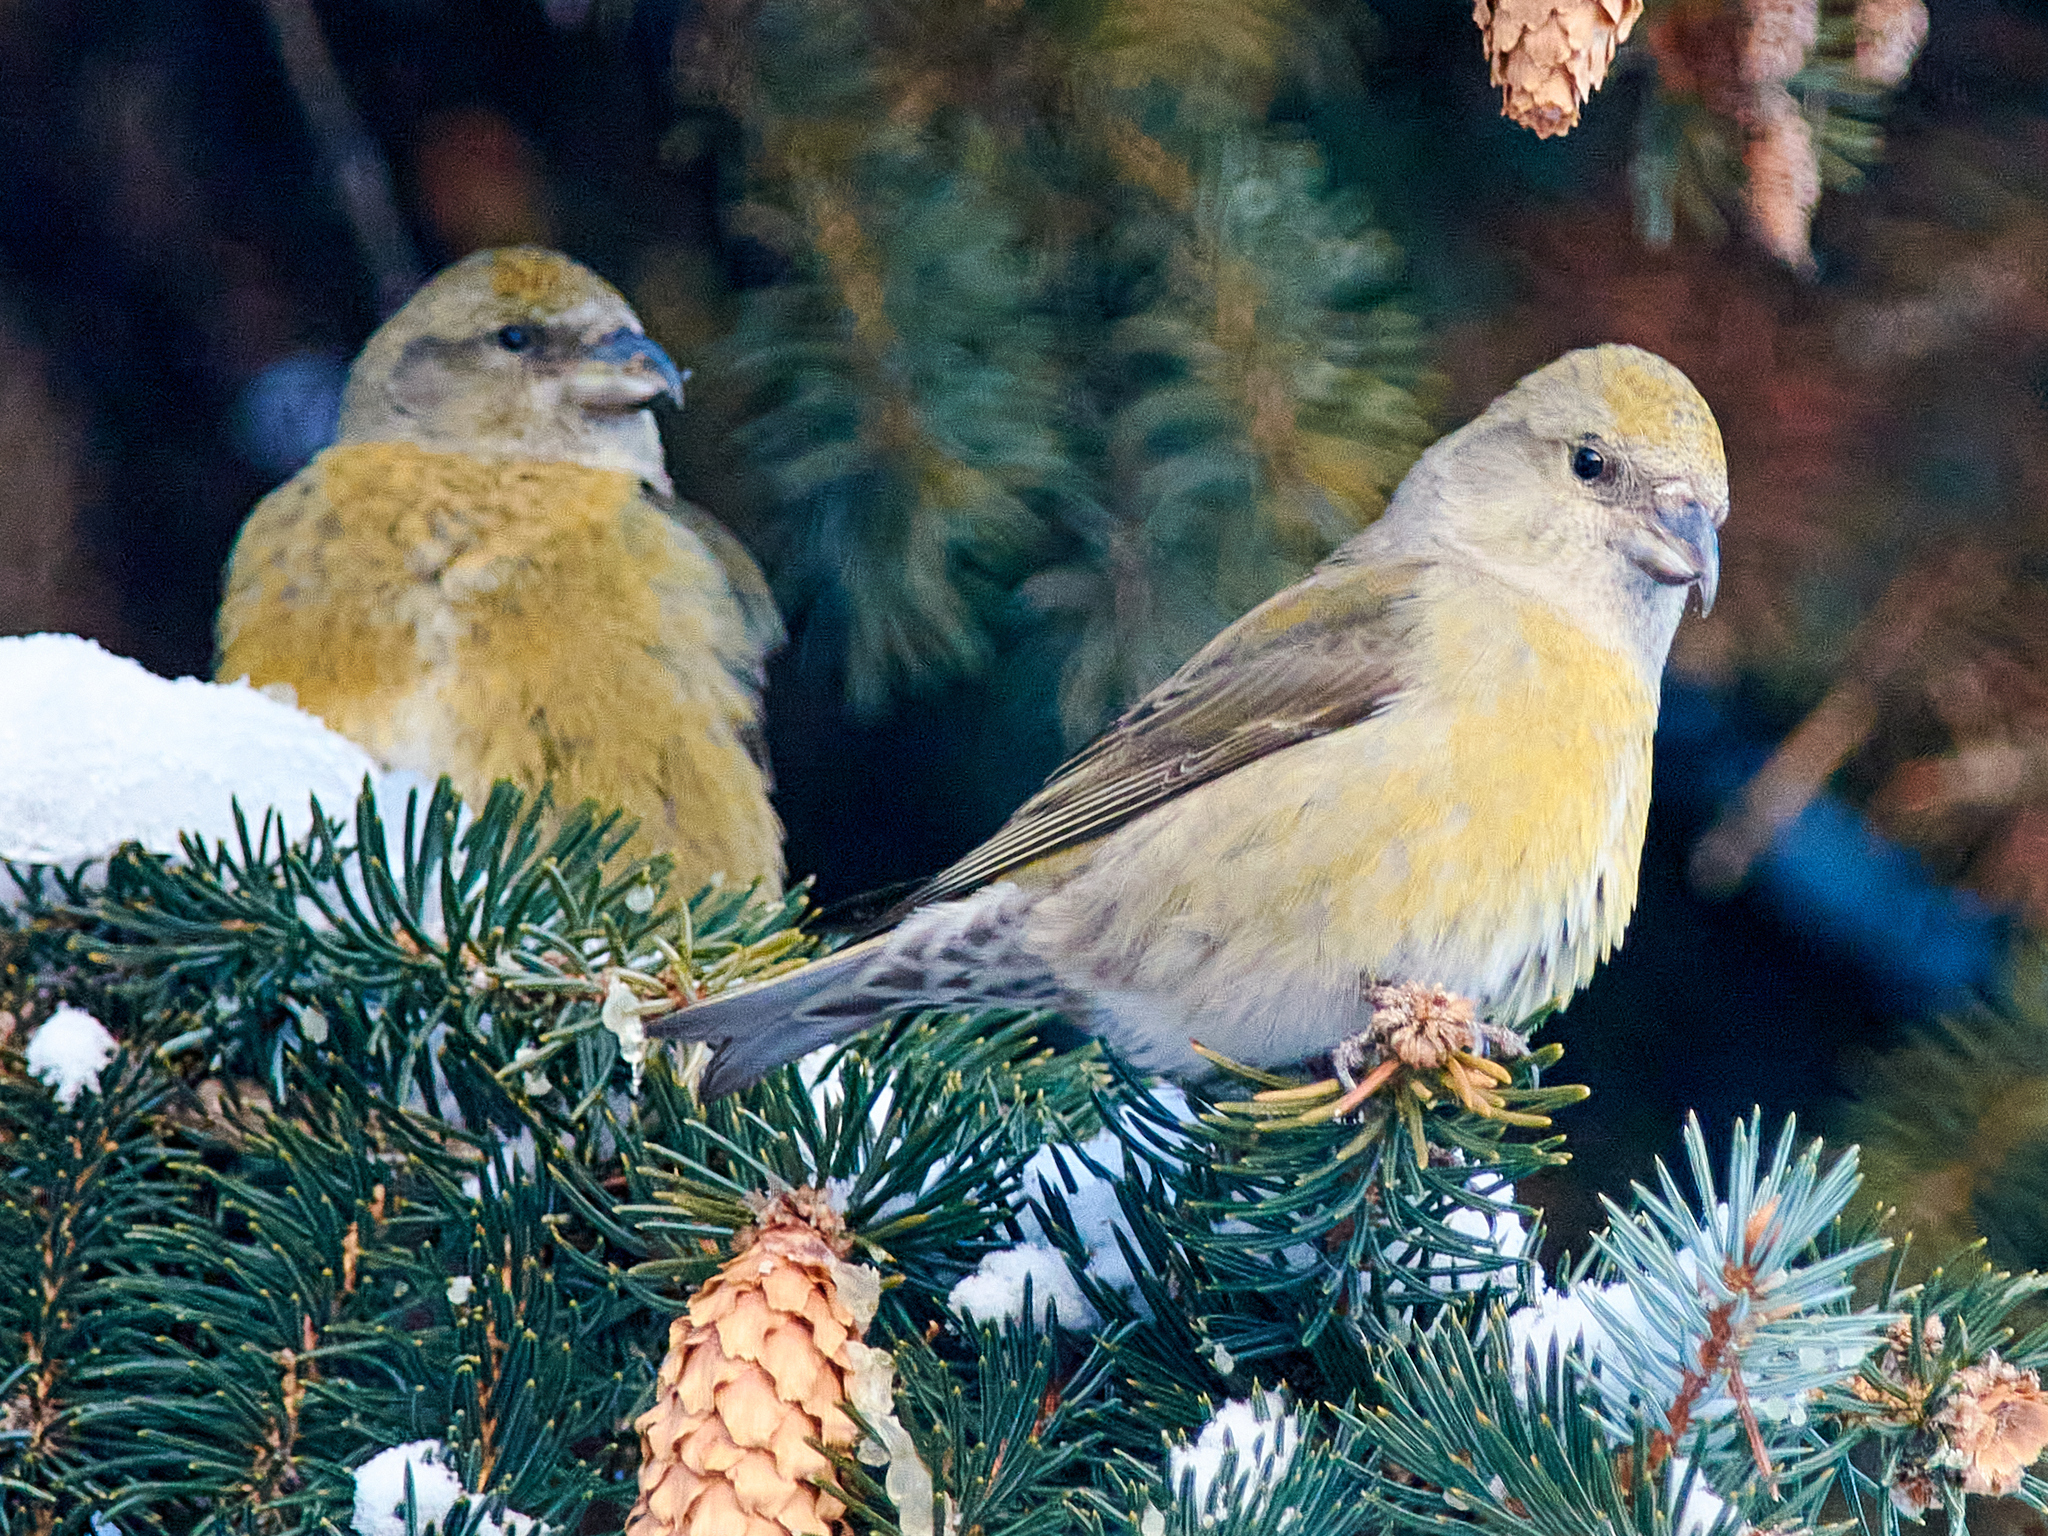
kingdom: Animalia
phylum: Chordata
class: Aves
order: Passeriformes
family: Fringillidae
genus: Loxia
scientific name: Loxia curvirostra
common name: Red crossbill
